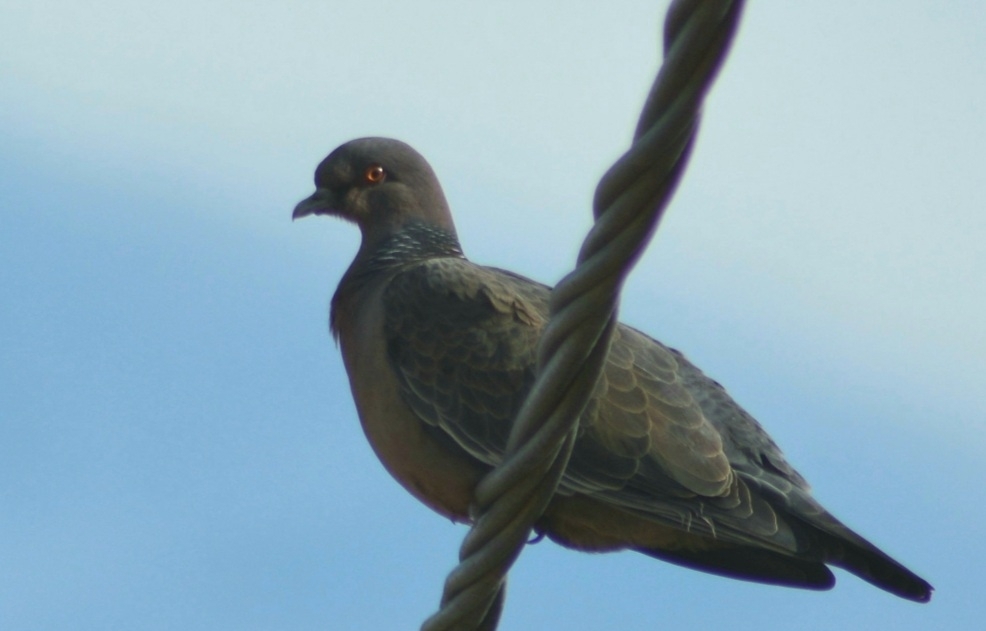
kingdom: Animalia
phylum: Chordata
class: Aves
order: Columbiformes
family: Columbidae
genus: Patagioenas
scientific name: Patagioenas picazuro
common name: Picazuro pigeon
